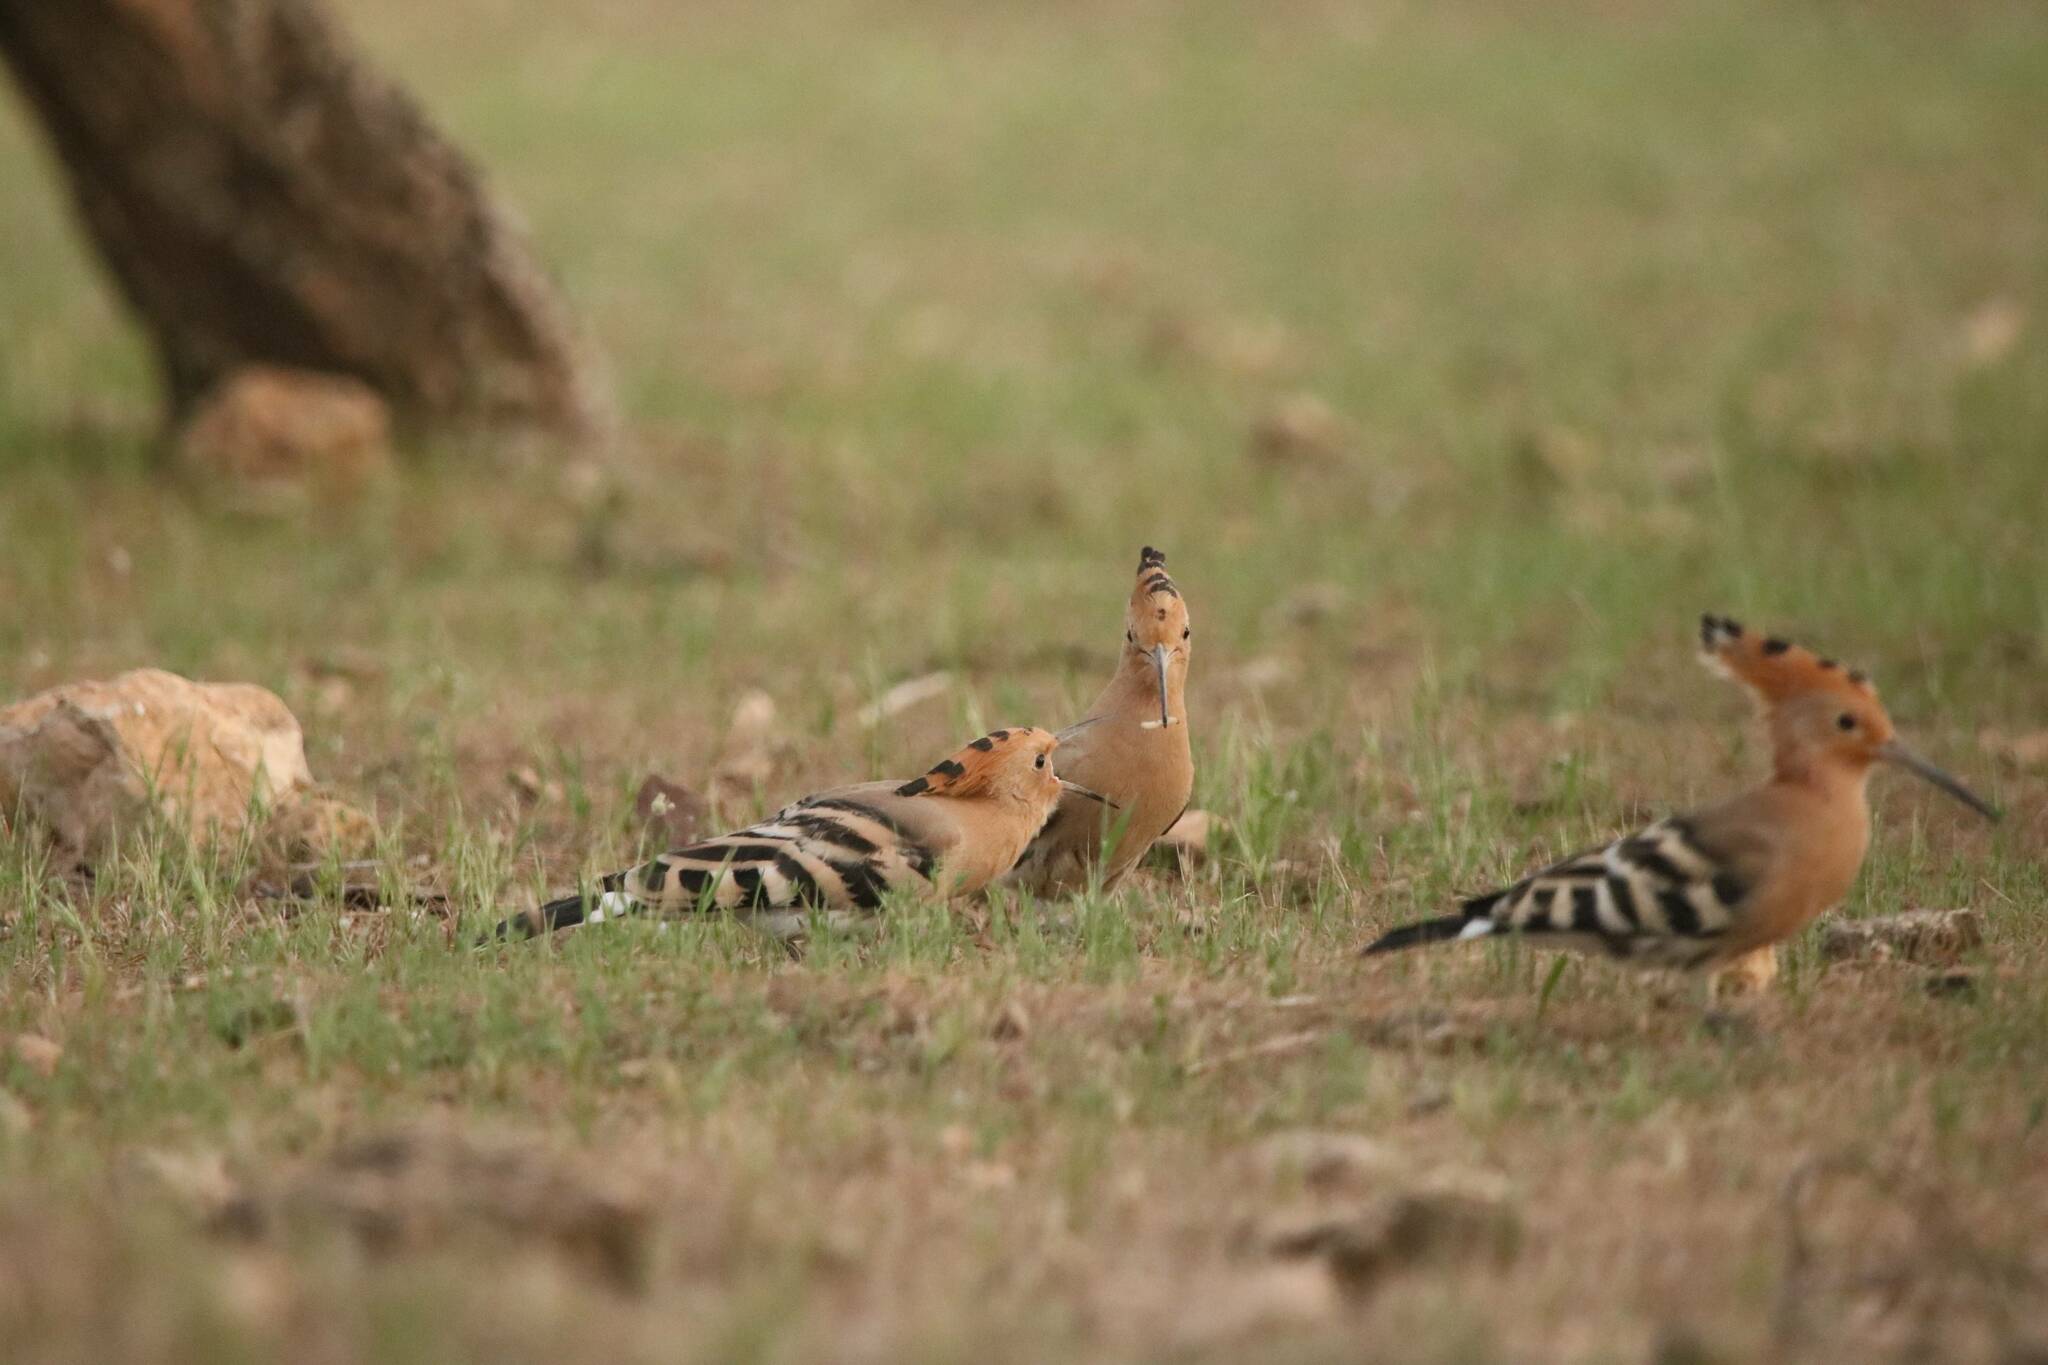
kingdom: Animalia
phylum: Chordata
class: Aves
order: Bucerotiformes
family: Upupidae
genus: Upupa
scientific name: Upupa epops
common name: Eurasian hoopoe
